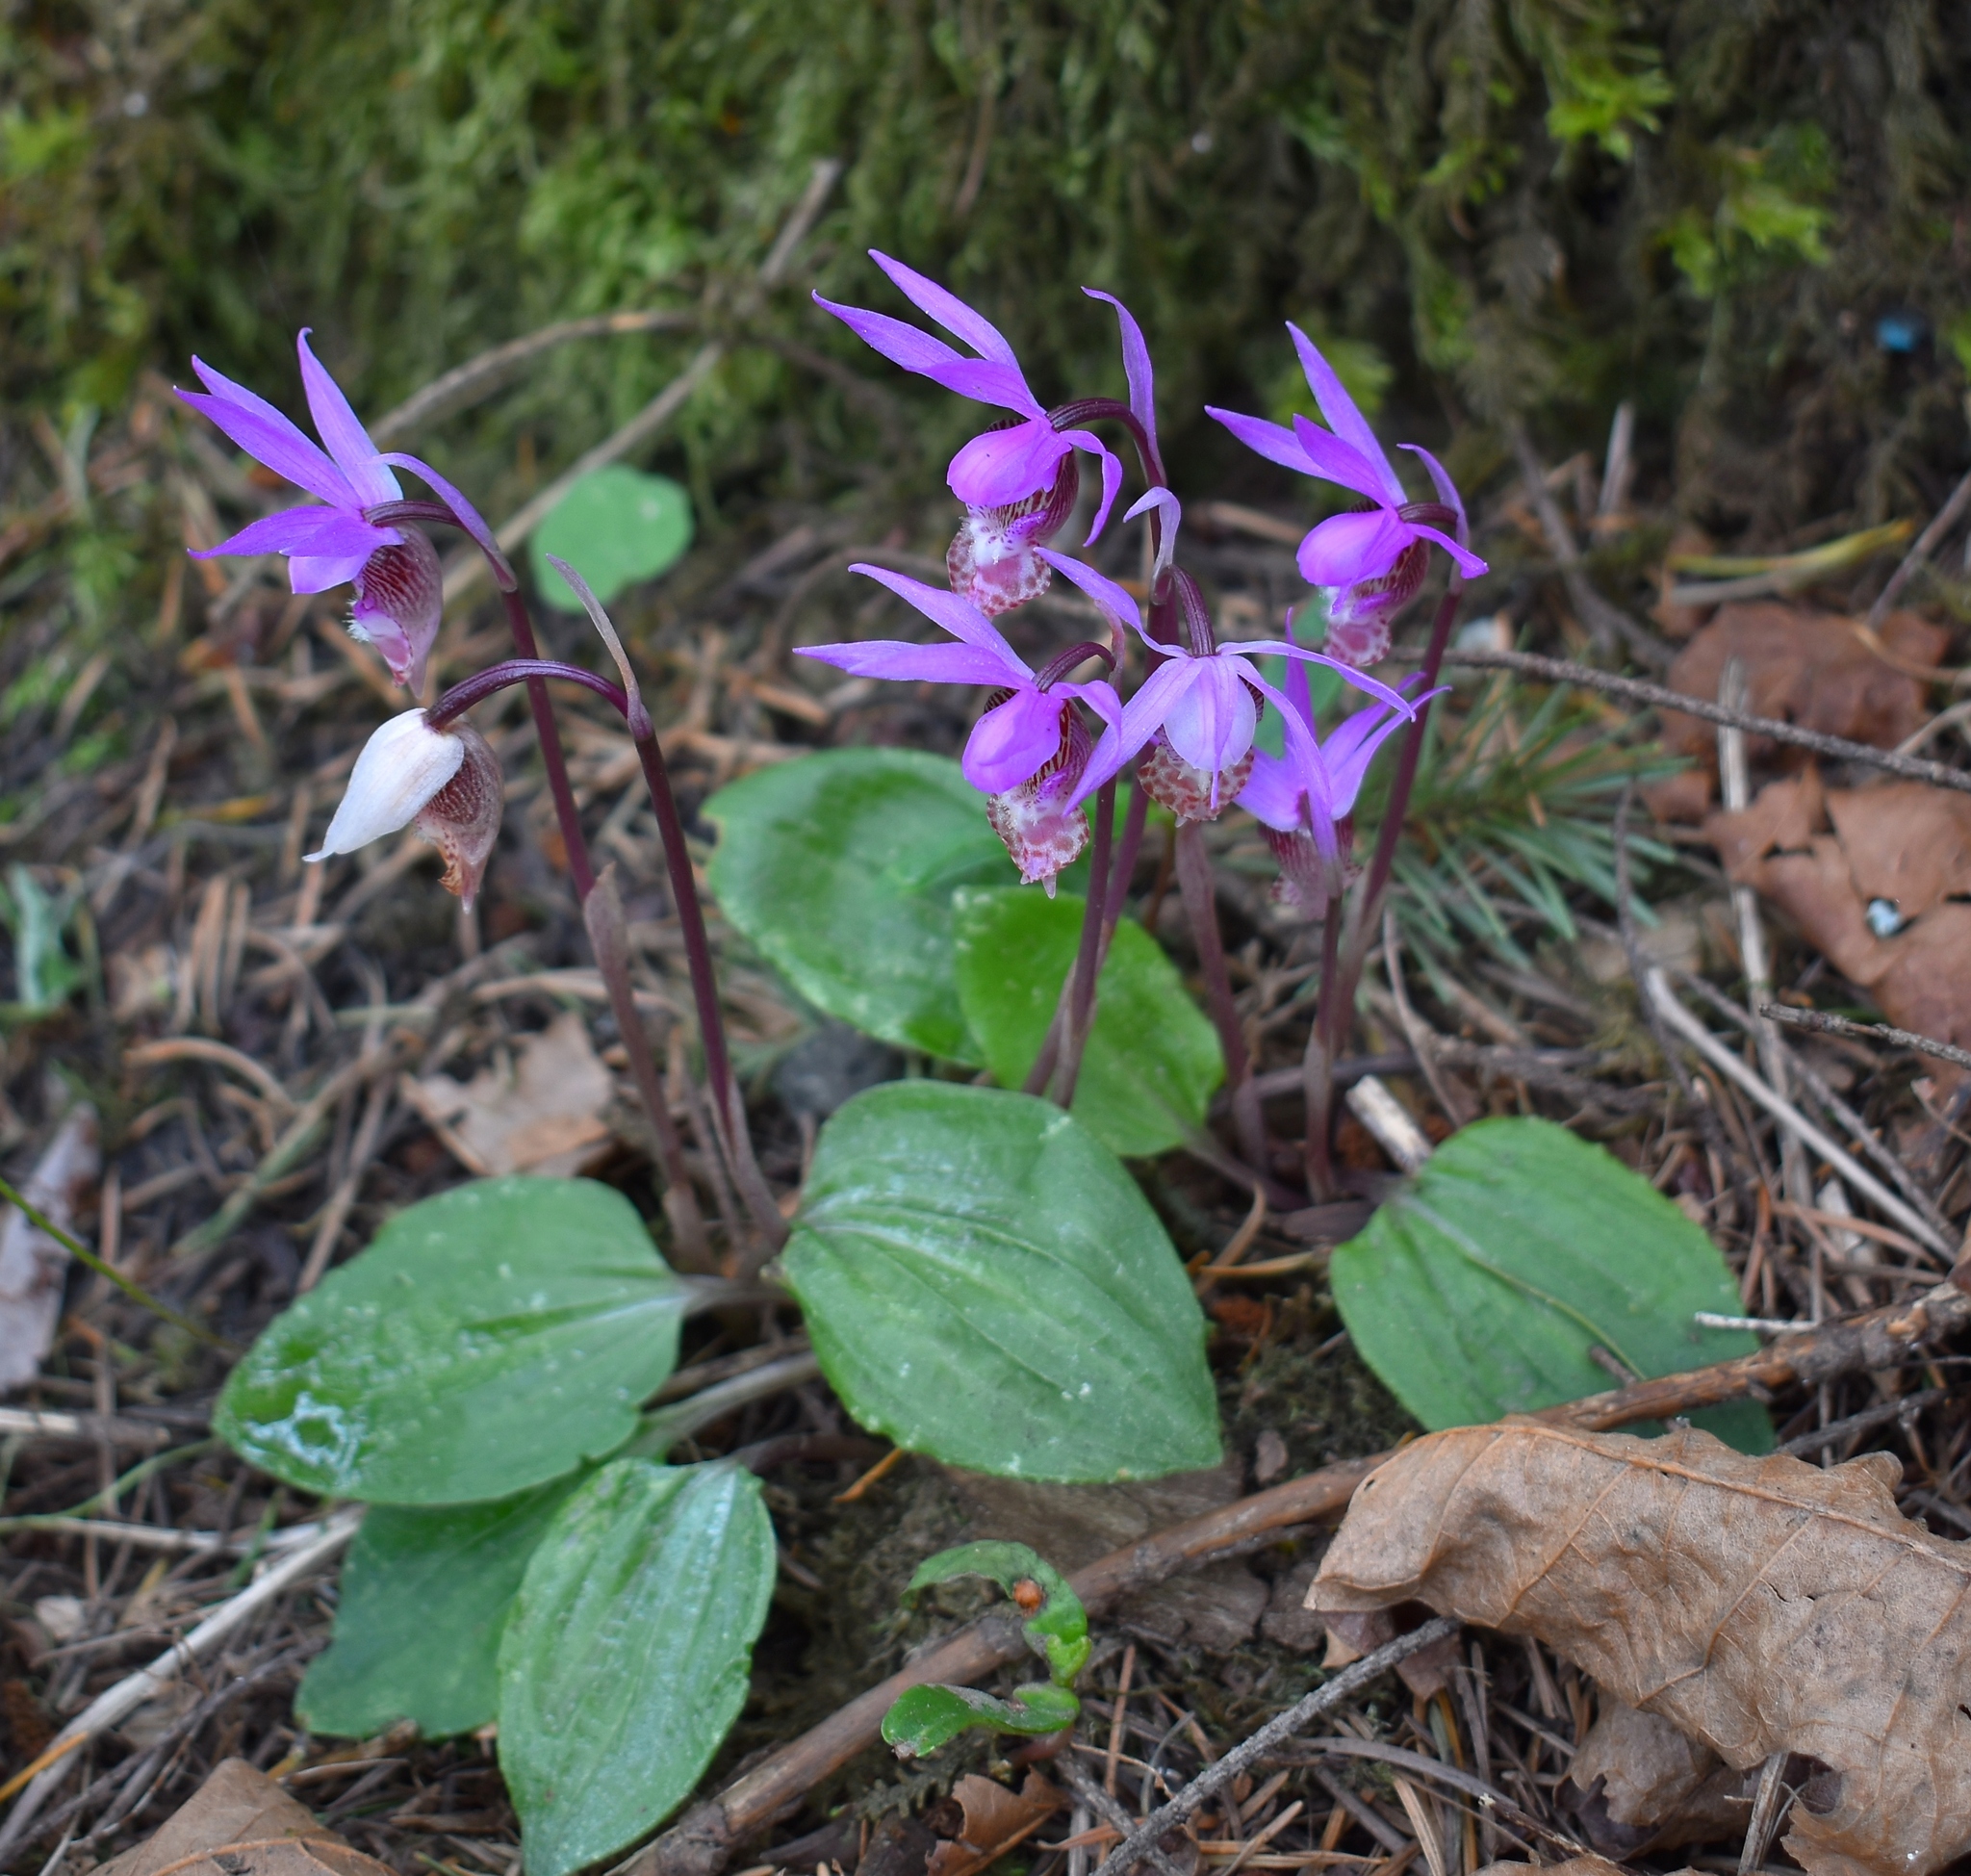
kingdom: Plantae
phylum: Tracheophyta
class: Liliopsida
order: Asparagales
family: Orchidaceae
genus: Calypso
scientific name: Calypso bulbosa
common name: Calypso
